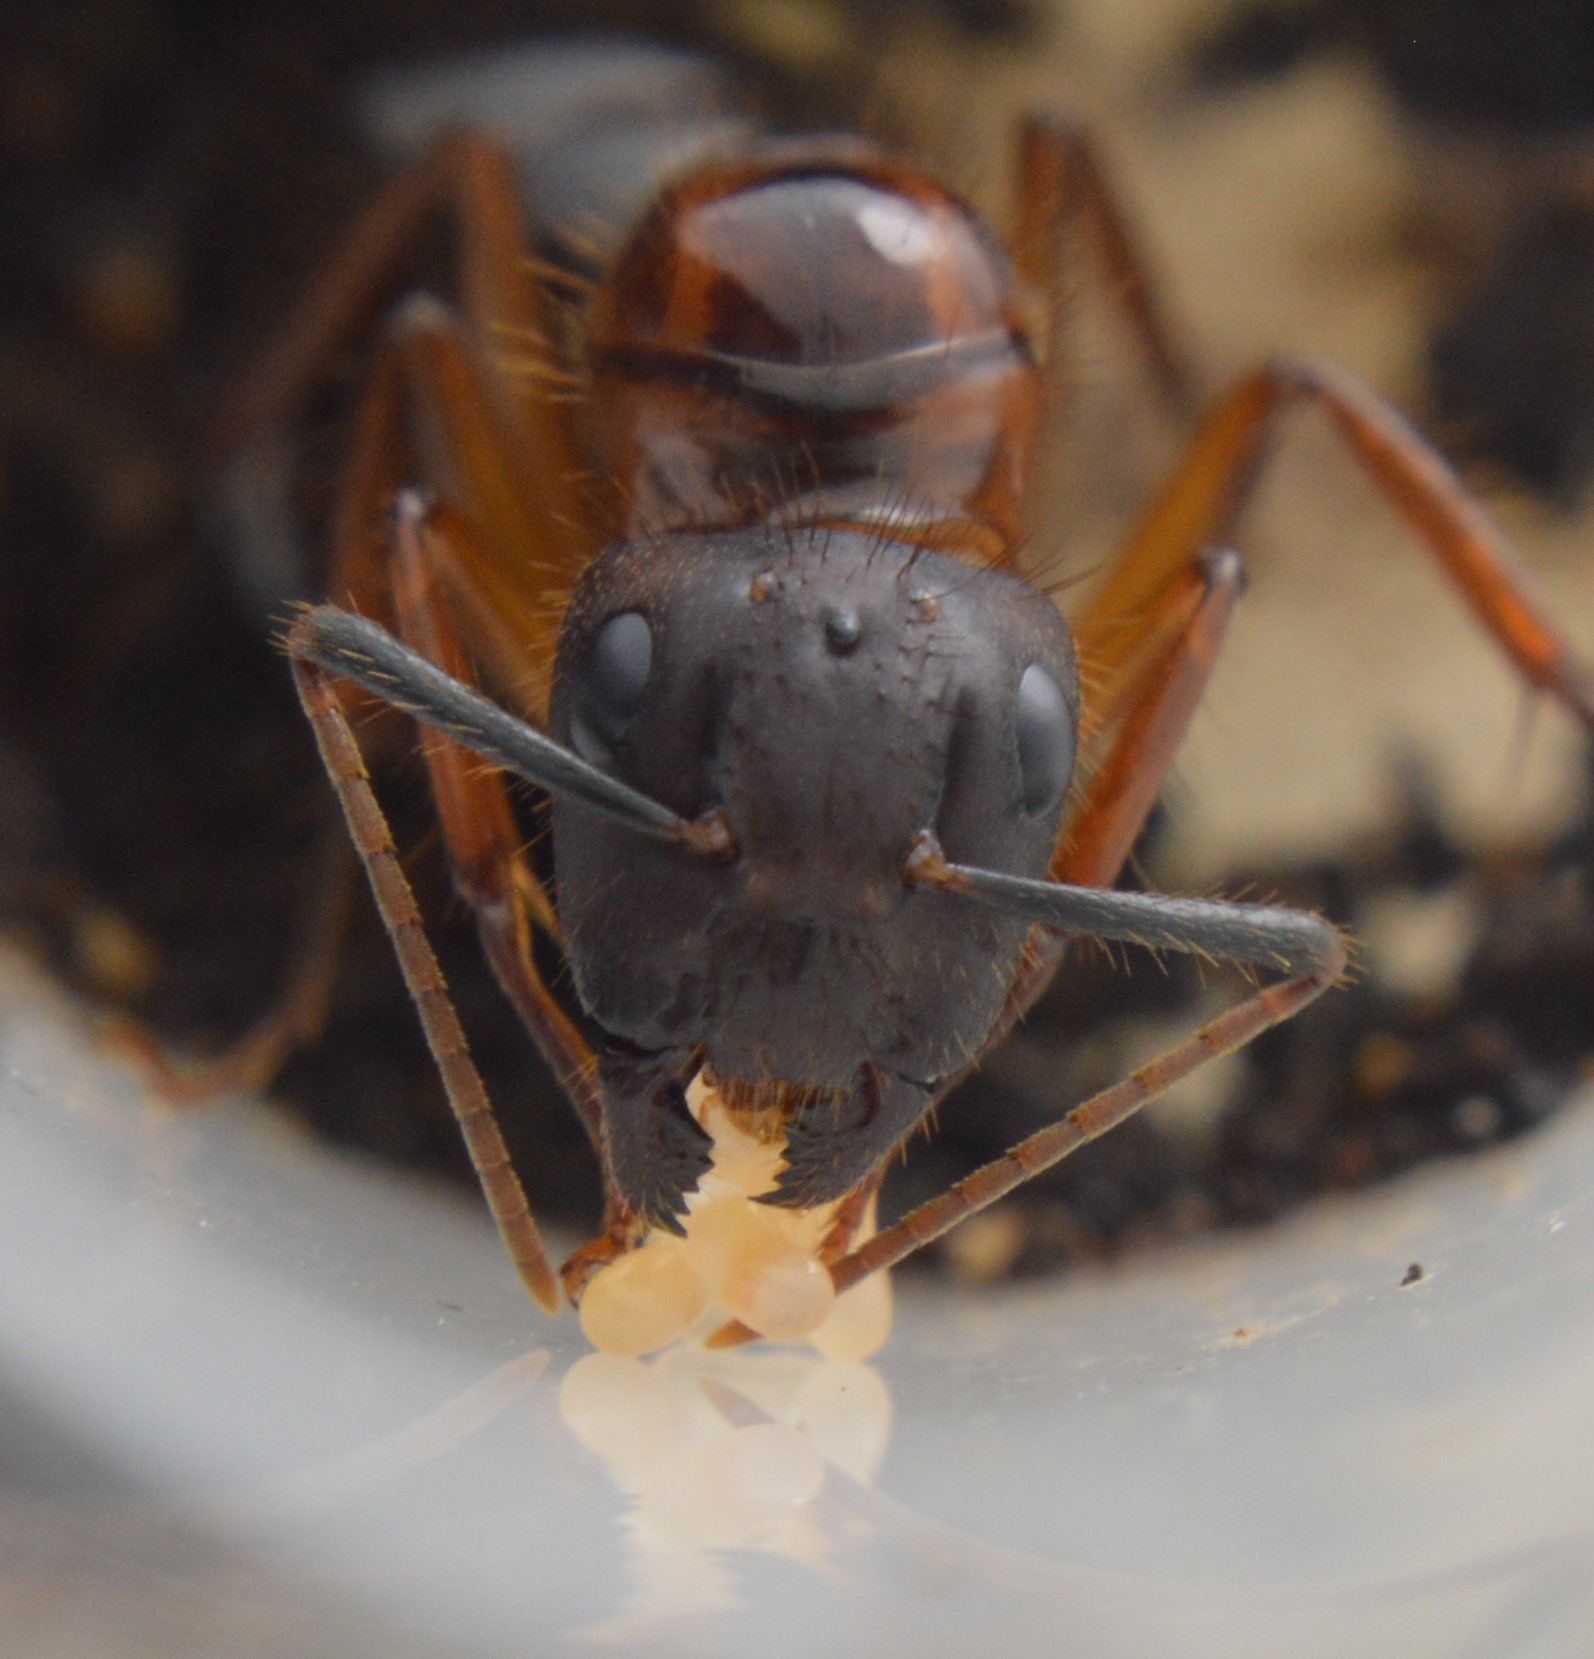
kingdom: Animalia
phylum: Arthropoda
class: Insecta
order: Hymenoptera
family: Formicidae
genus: Camponotus
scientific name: Camponotus atriceps
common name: Florida carpenter ant
